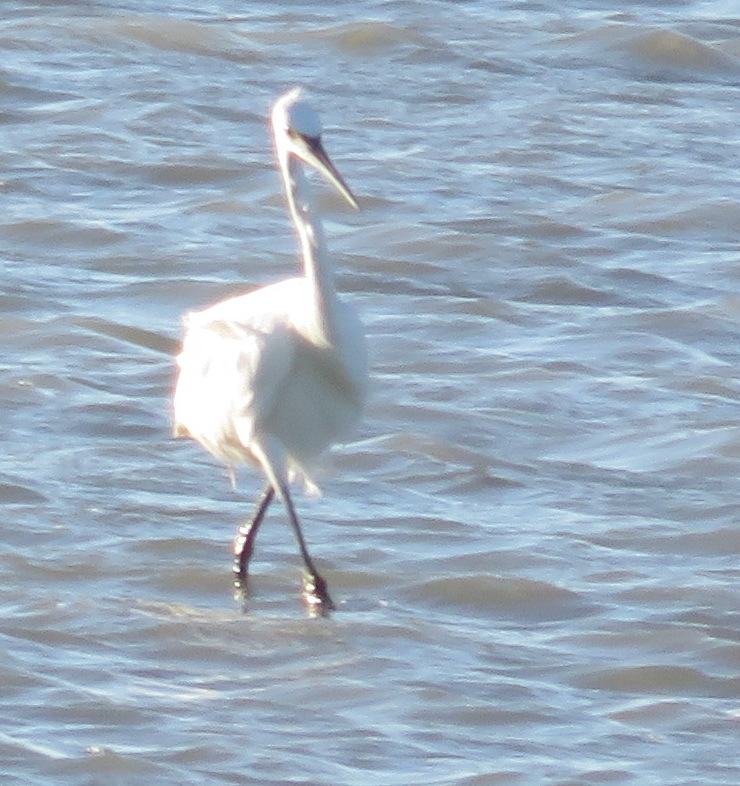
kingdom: Animalia
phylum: Chordata
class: Aves
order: Pelecaniformes
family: Ardeidae
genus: Egretta
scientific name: Egretta garzetta
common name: Little egret
